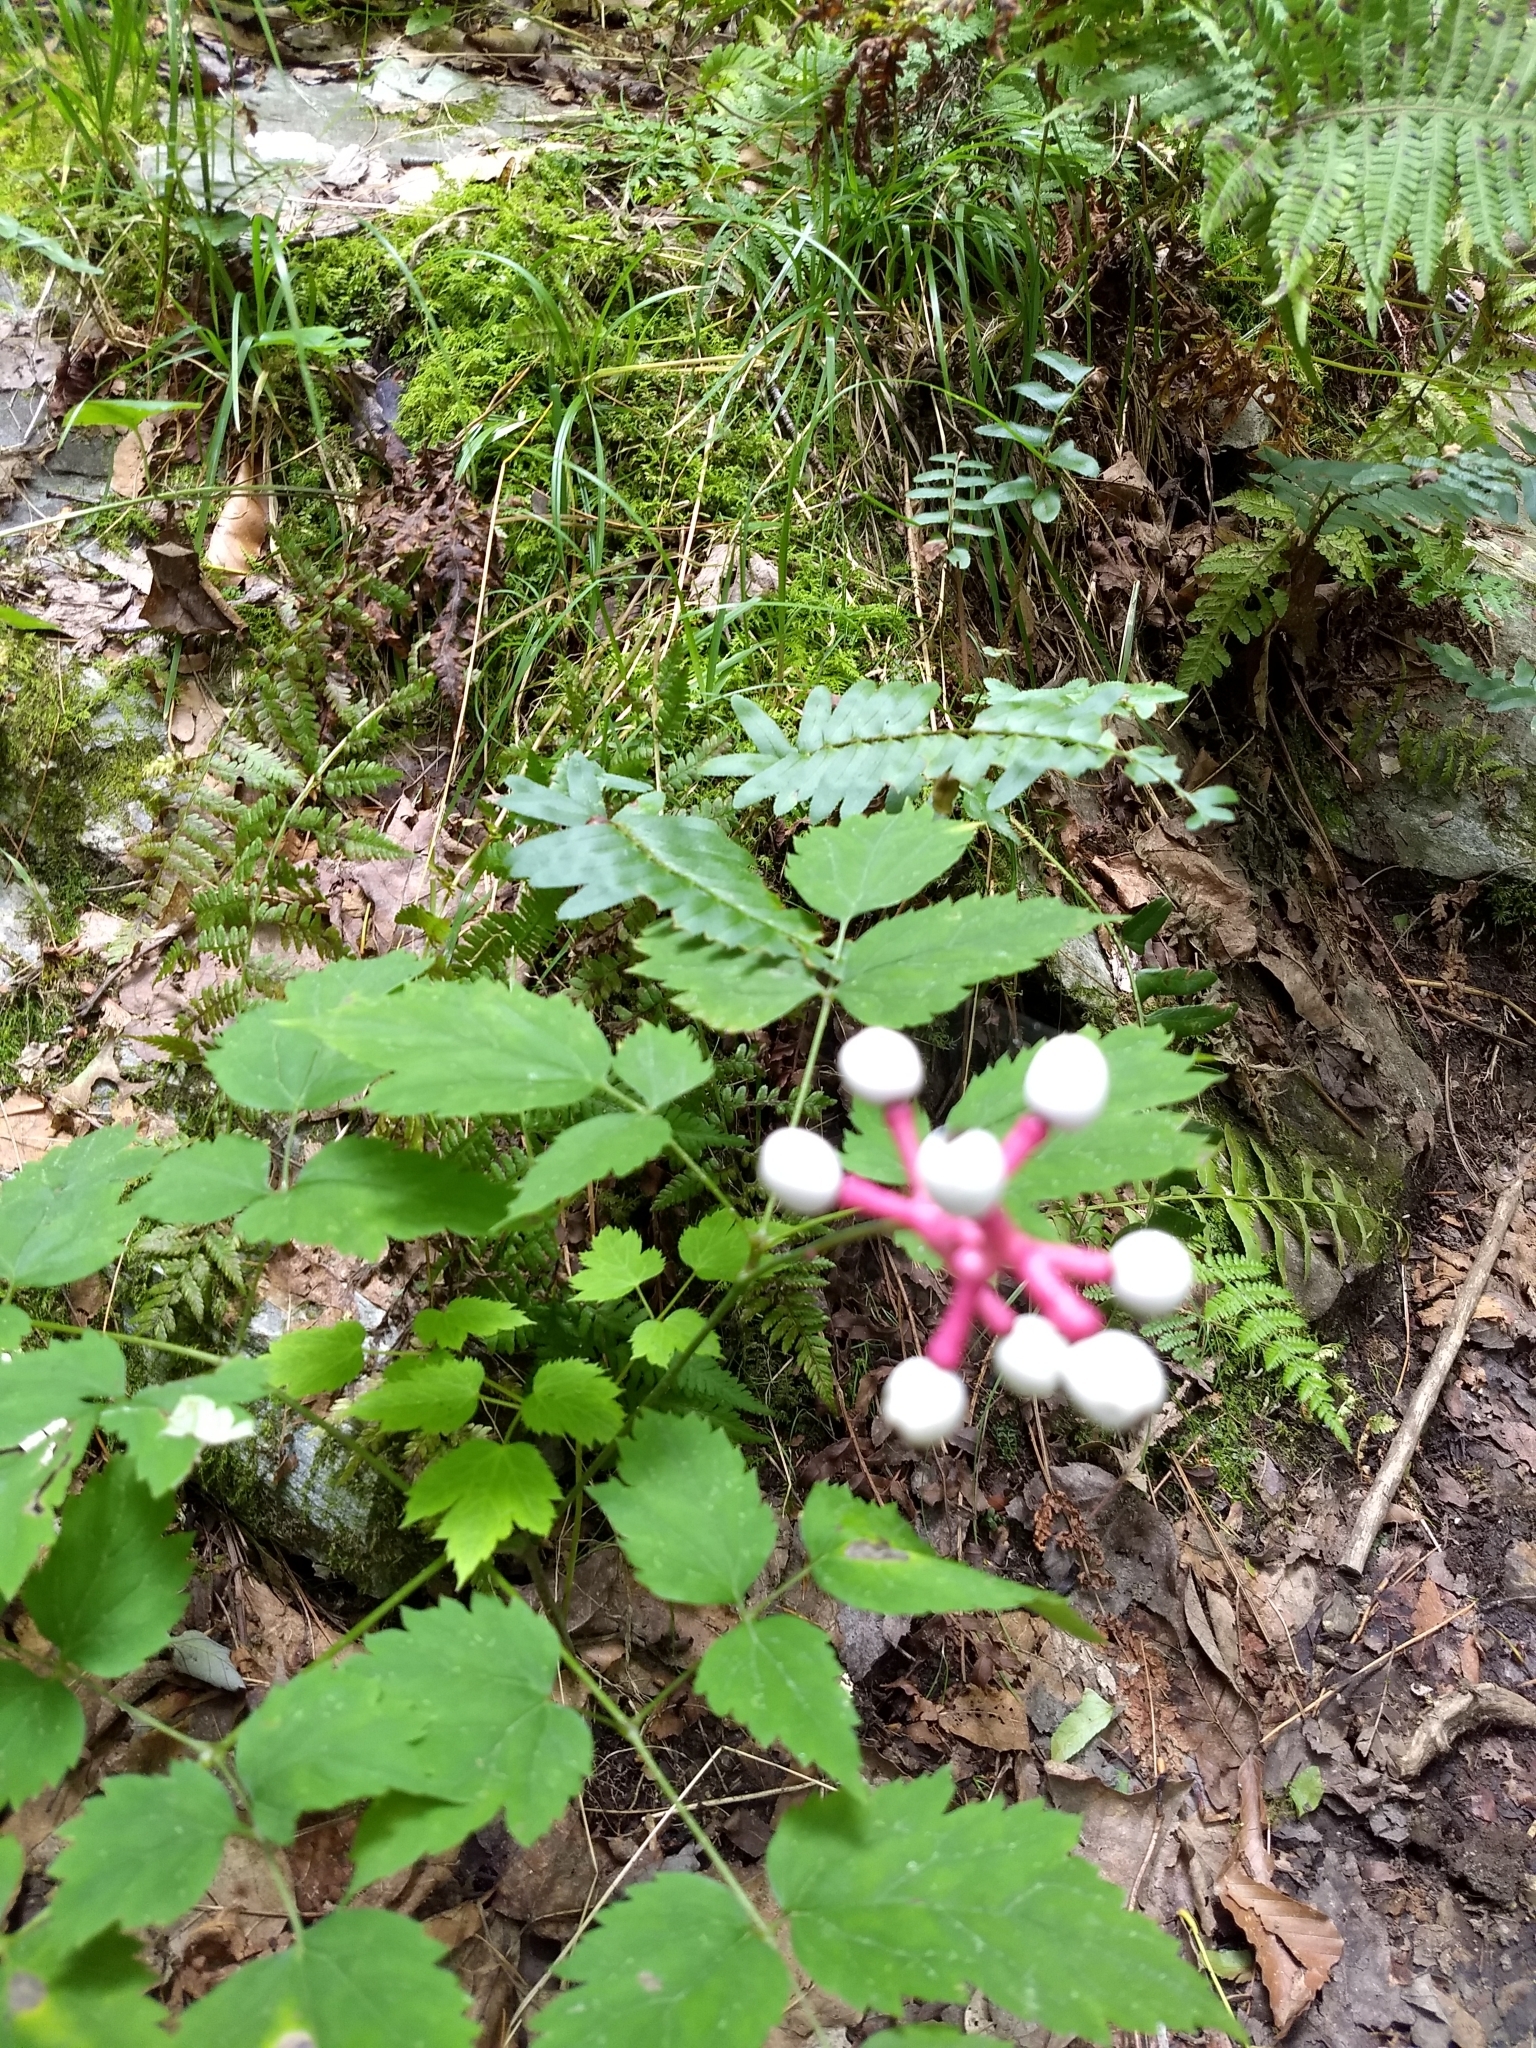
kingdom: Plantae
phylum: Tracheophyta
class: Magnoliopsida
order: Ranunculales
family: Ranunculaceae
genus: Actaea
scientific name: Actaea pachypoda
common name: Doll's-eyes
